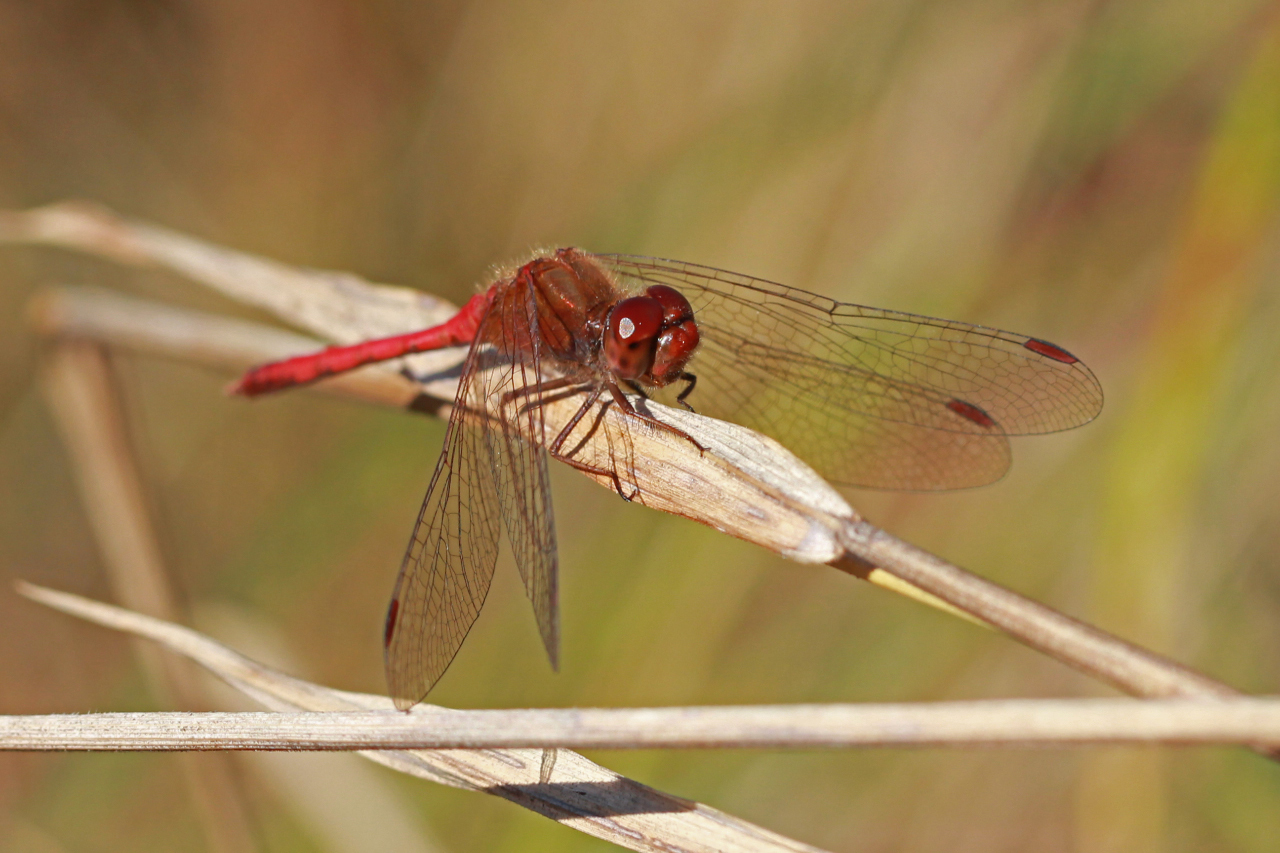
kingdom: Animalia
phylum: Arthropoda
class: Insecta
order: Odonata
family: Libellulidae
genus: Sympetrum
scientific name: Sympetrum vicinum
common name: Autumn meadowhawk
